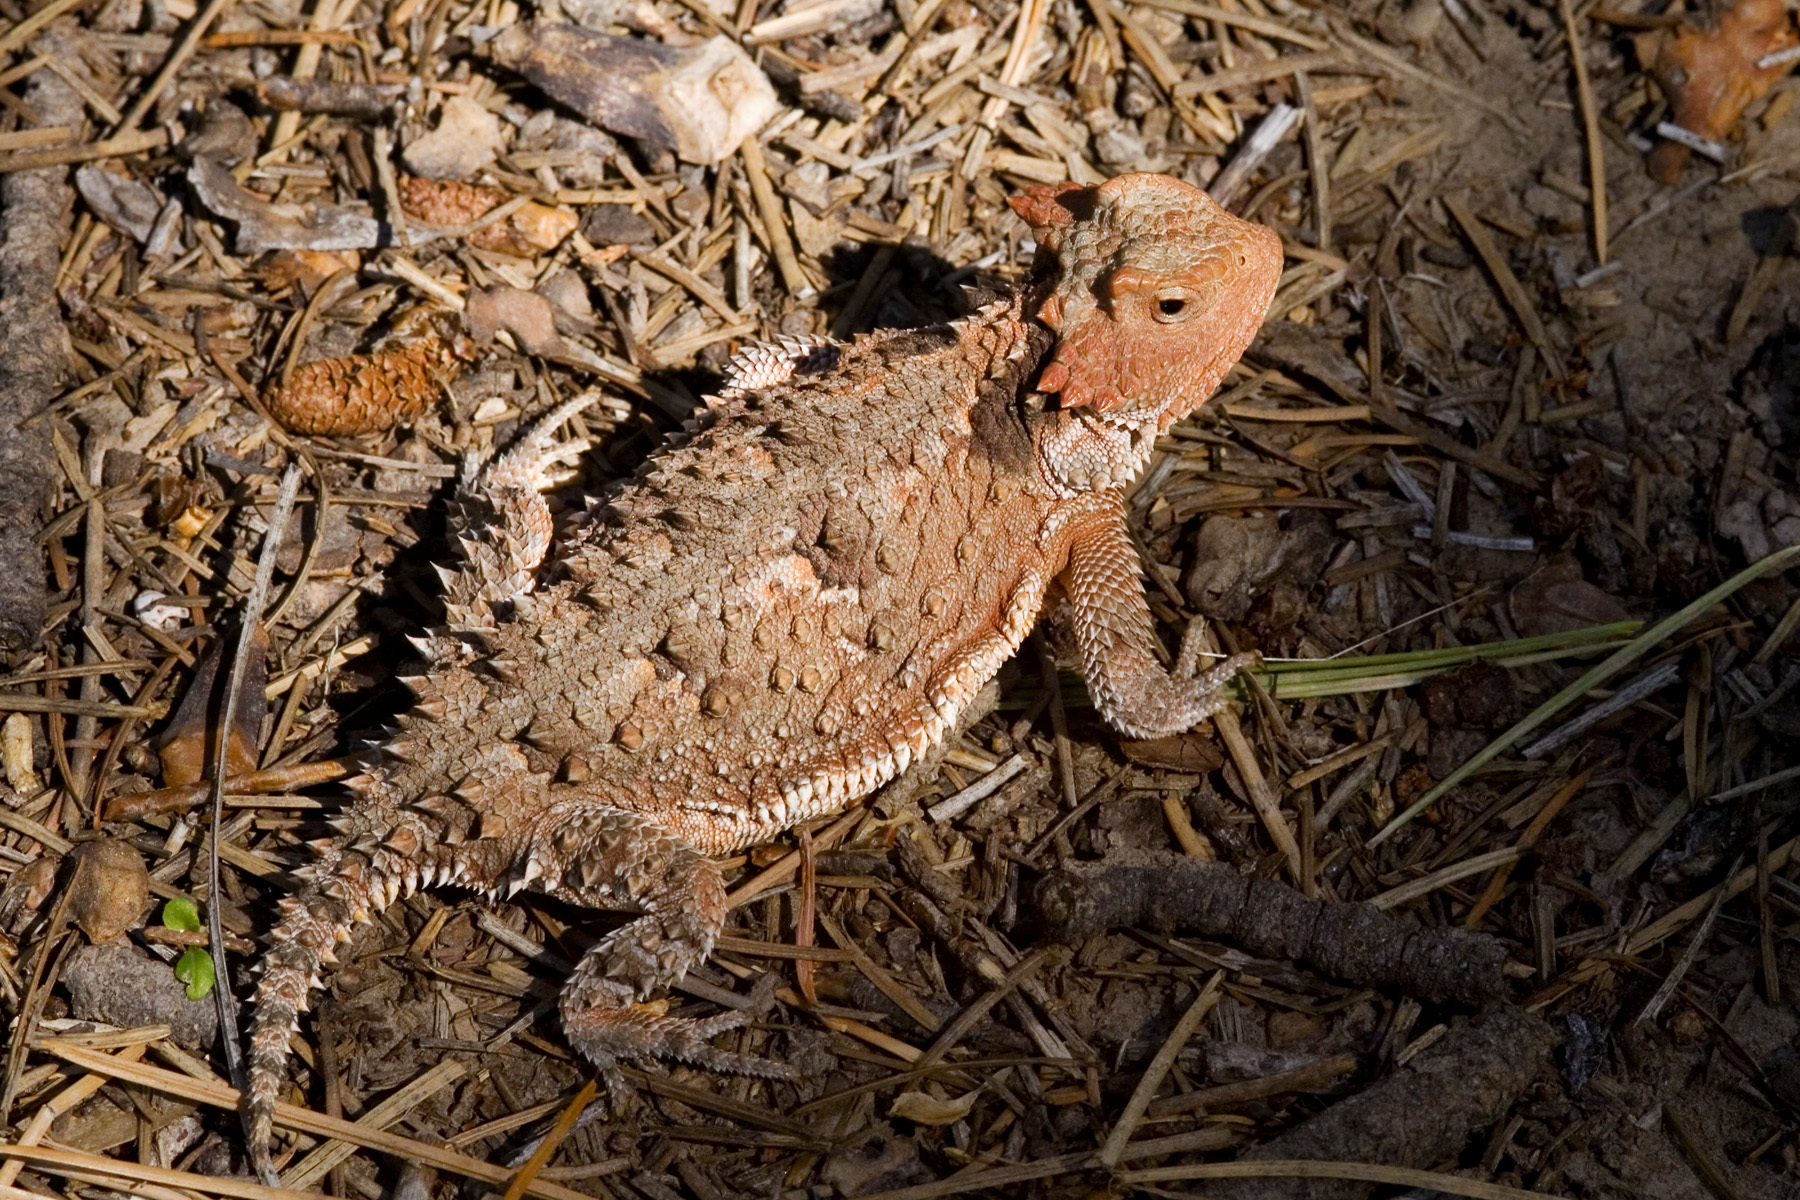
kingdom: Animalia
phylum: Chordata
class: Squamata
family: Phrynosomatidae
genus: Phrynosoma
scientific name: Phrynosoma hernandesi
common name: Greater short-horned lizard
